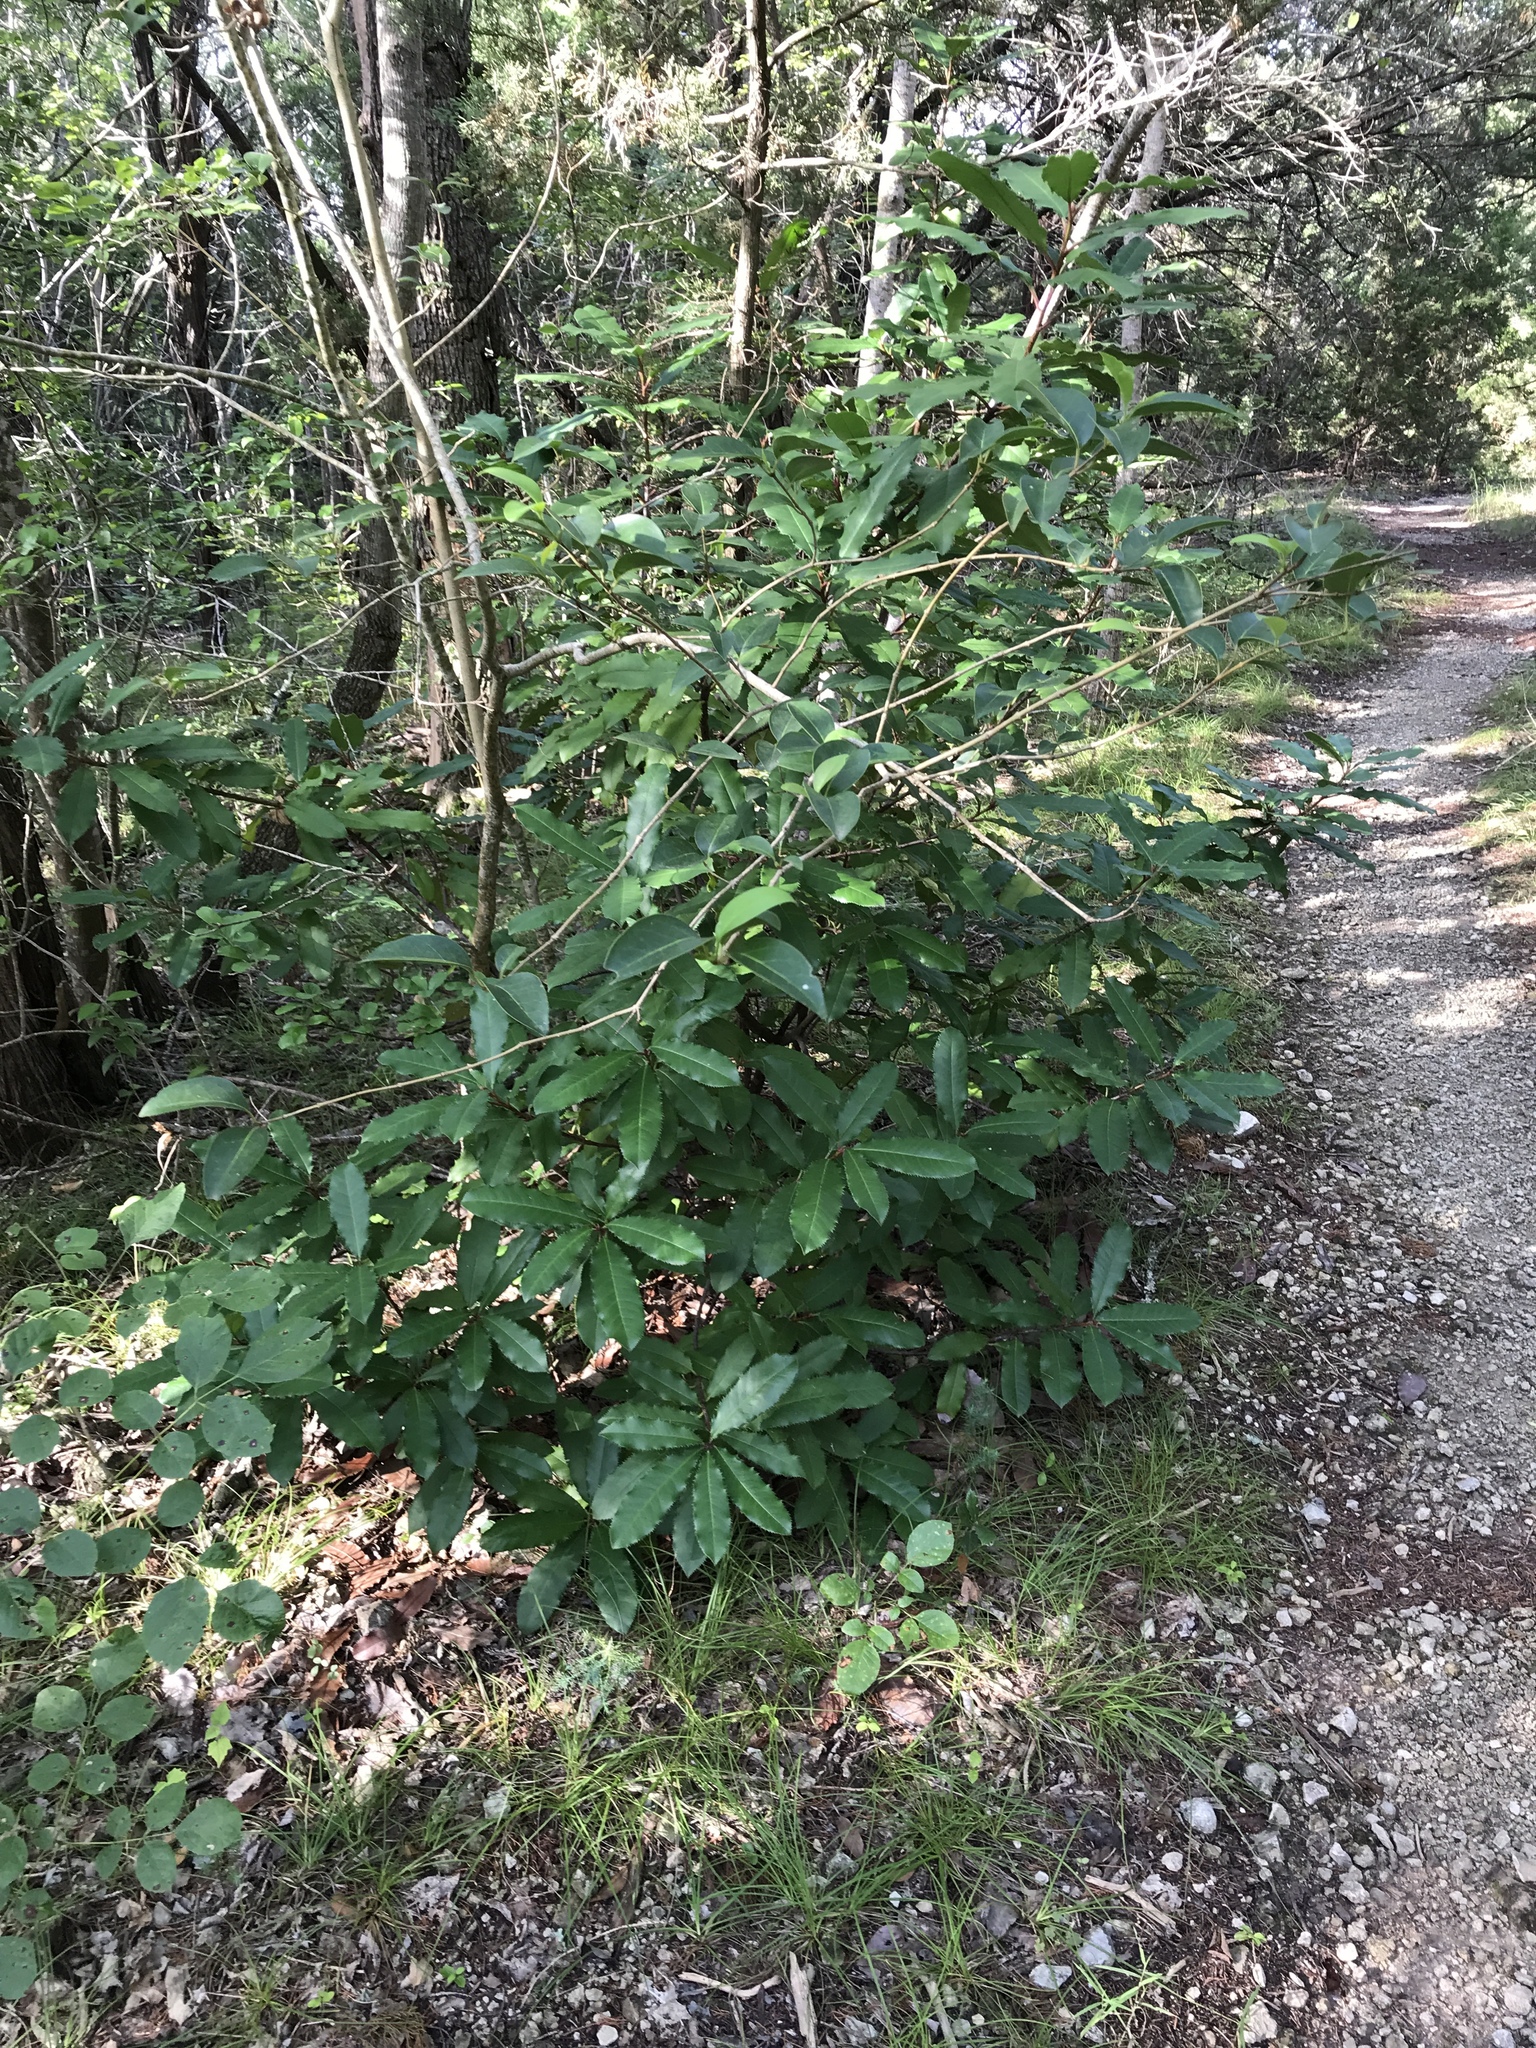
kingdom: Plantae
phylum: Tracheophyta
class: Magnoliopsida
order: Rosales
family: Rosaceae
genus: Photinia
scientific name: Photinia serratifolia
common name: Taiwanese photinia
